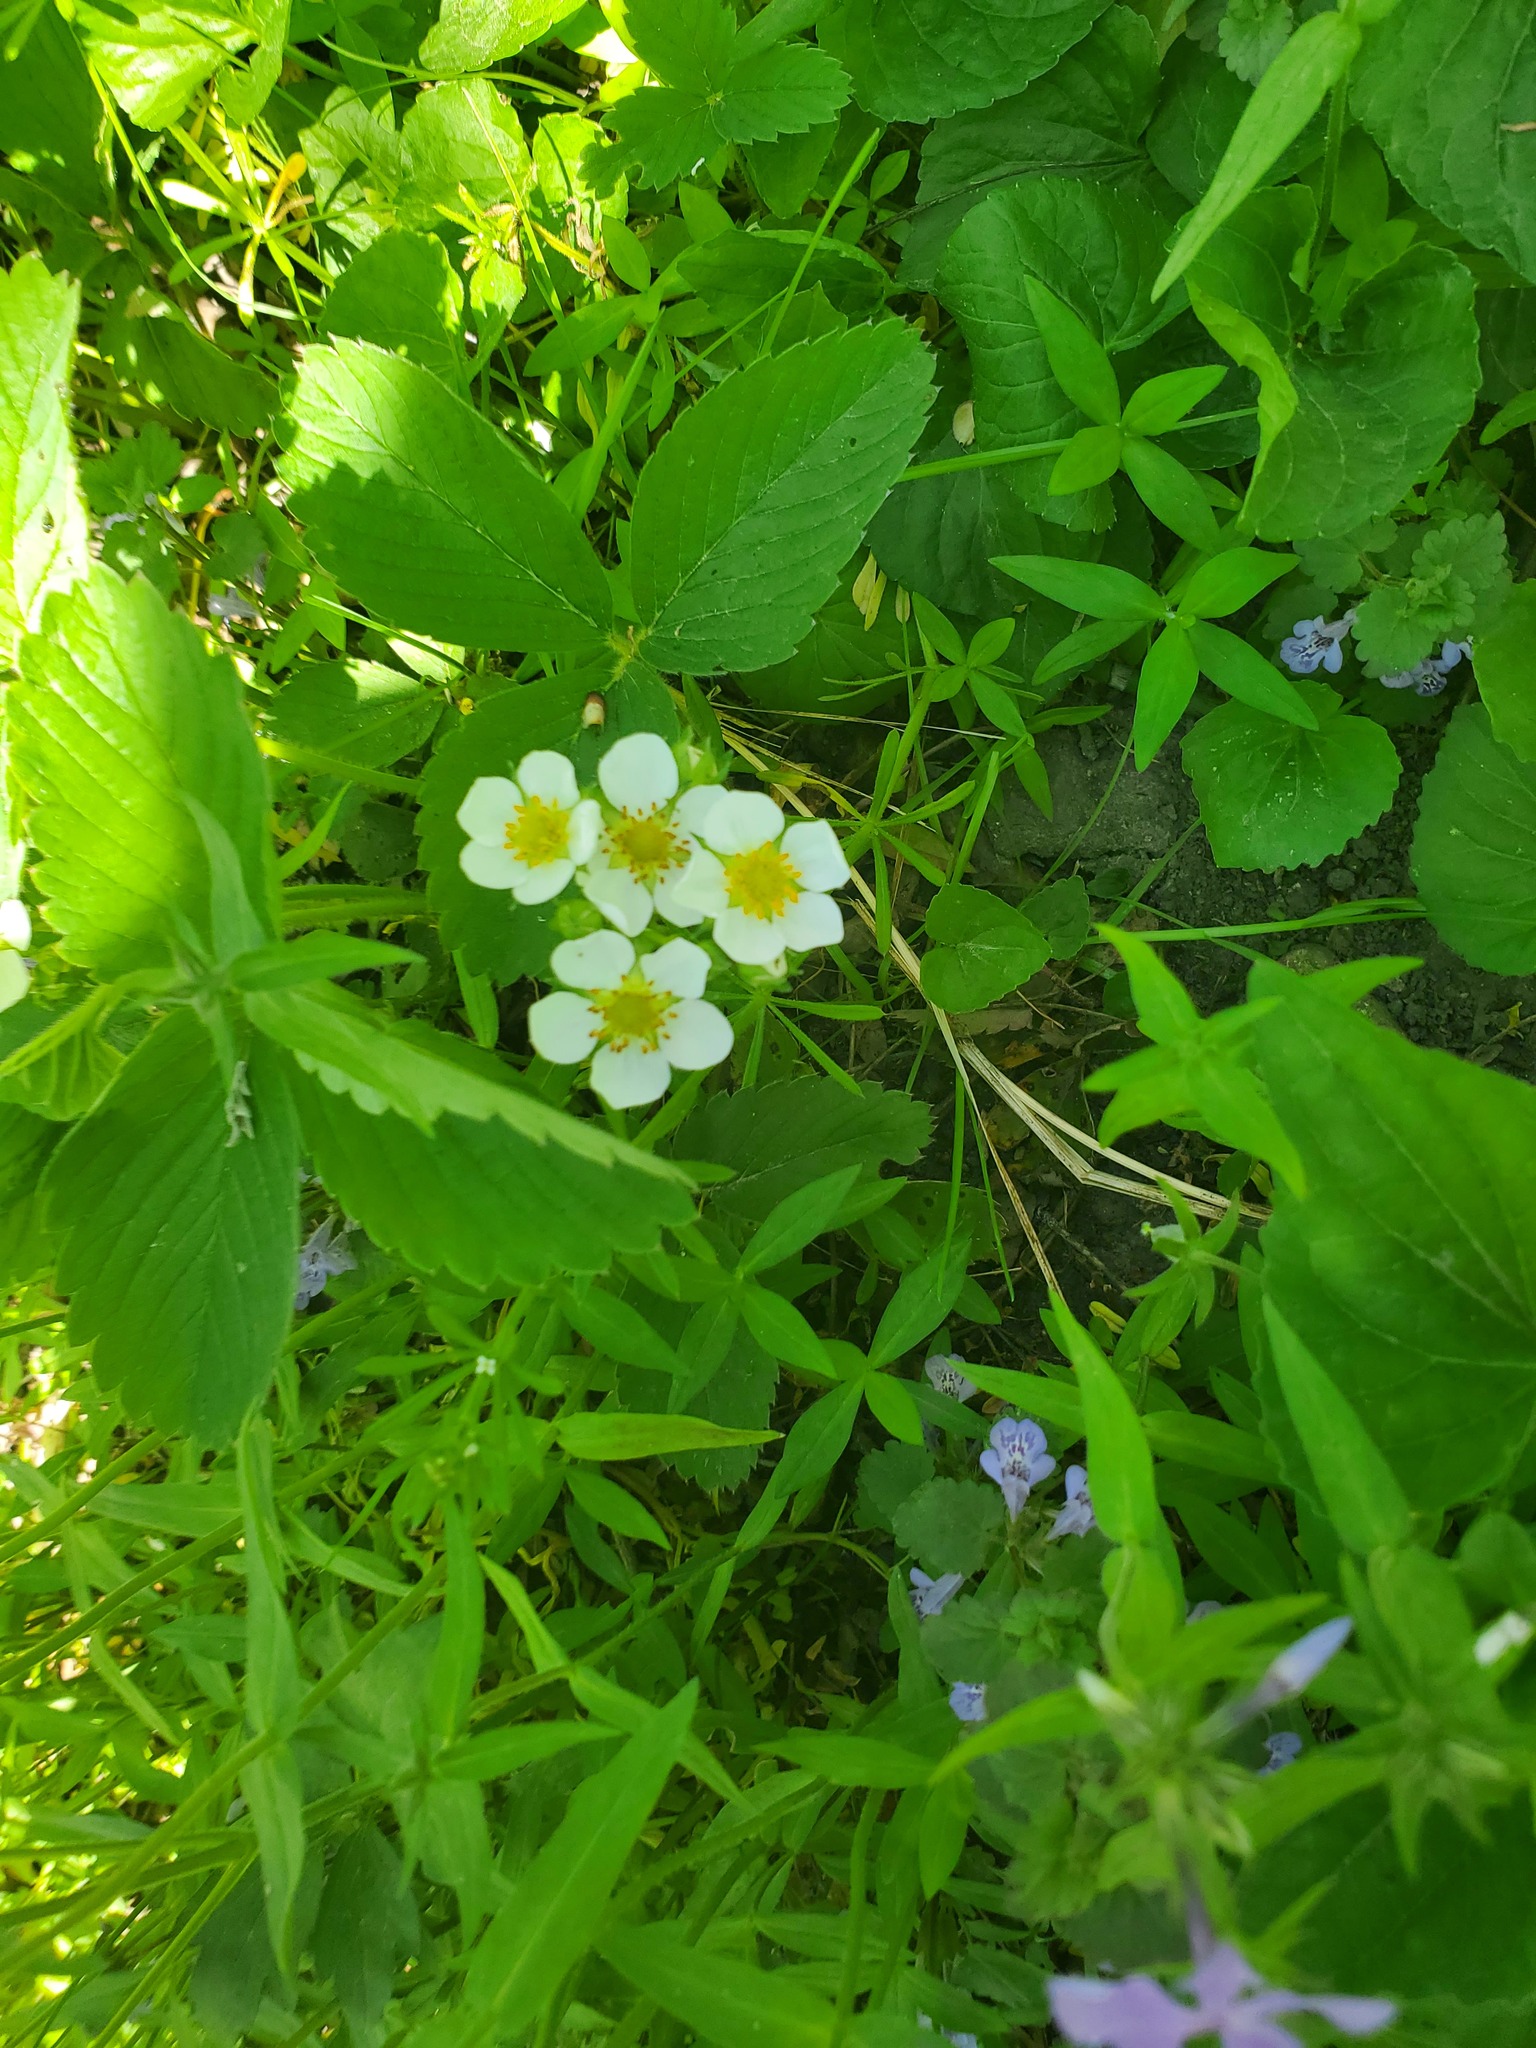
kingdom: Plantae
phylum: Tracheophyta
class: Magnoliopsida
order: Rosales
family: Rosaceae
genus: Fragaria
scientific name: Fragaria vesca
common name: Wild strawberry
